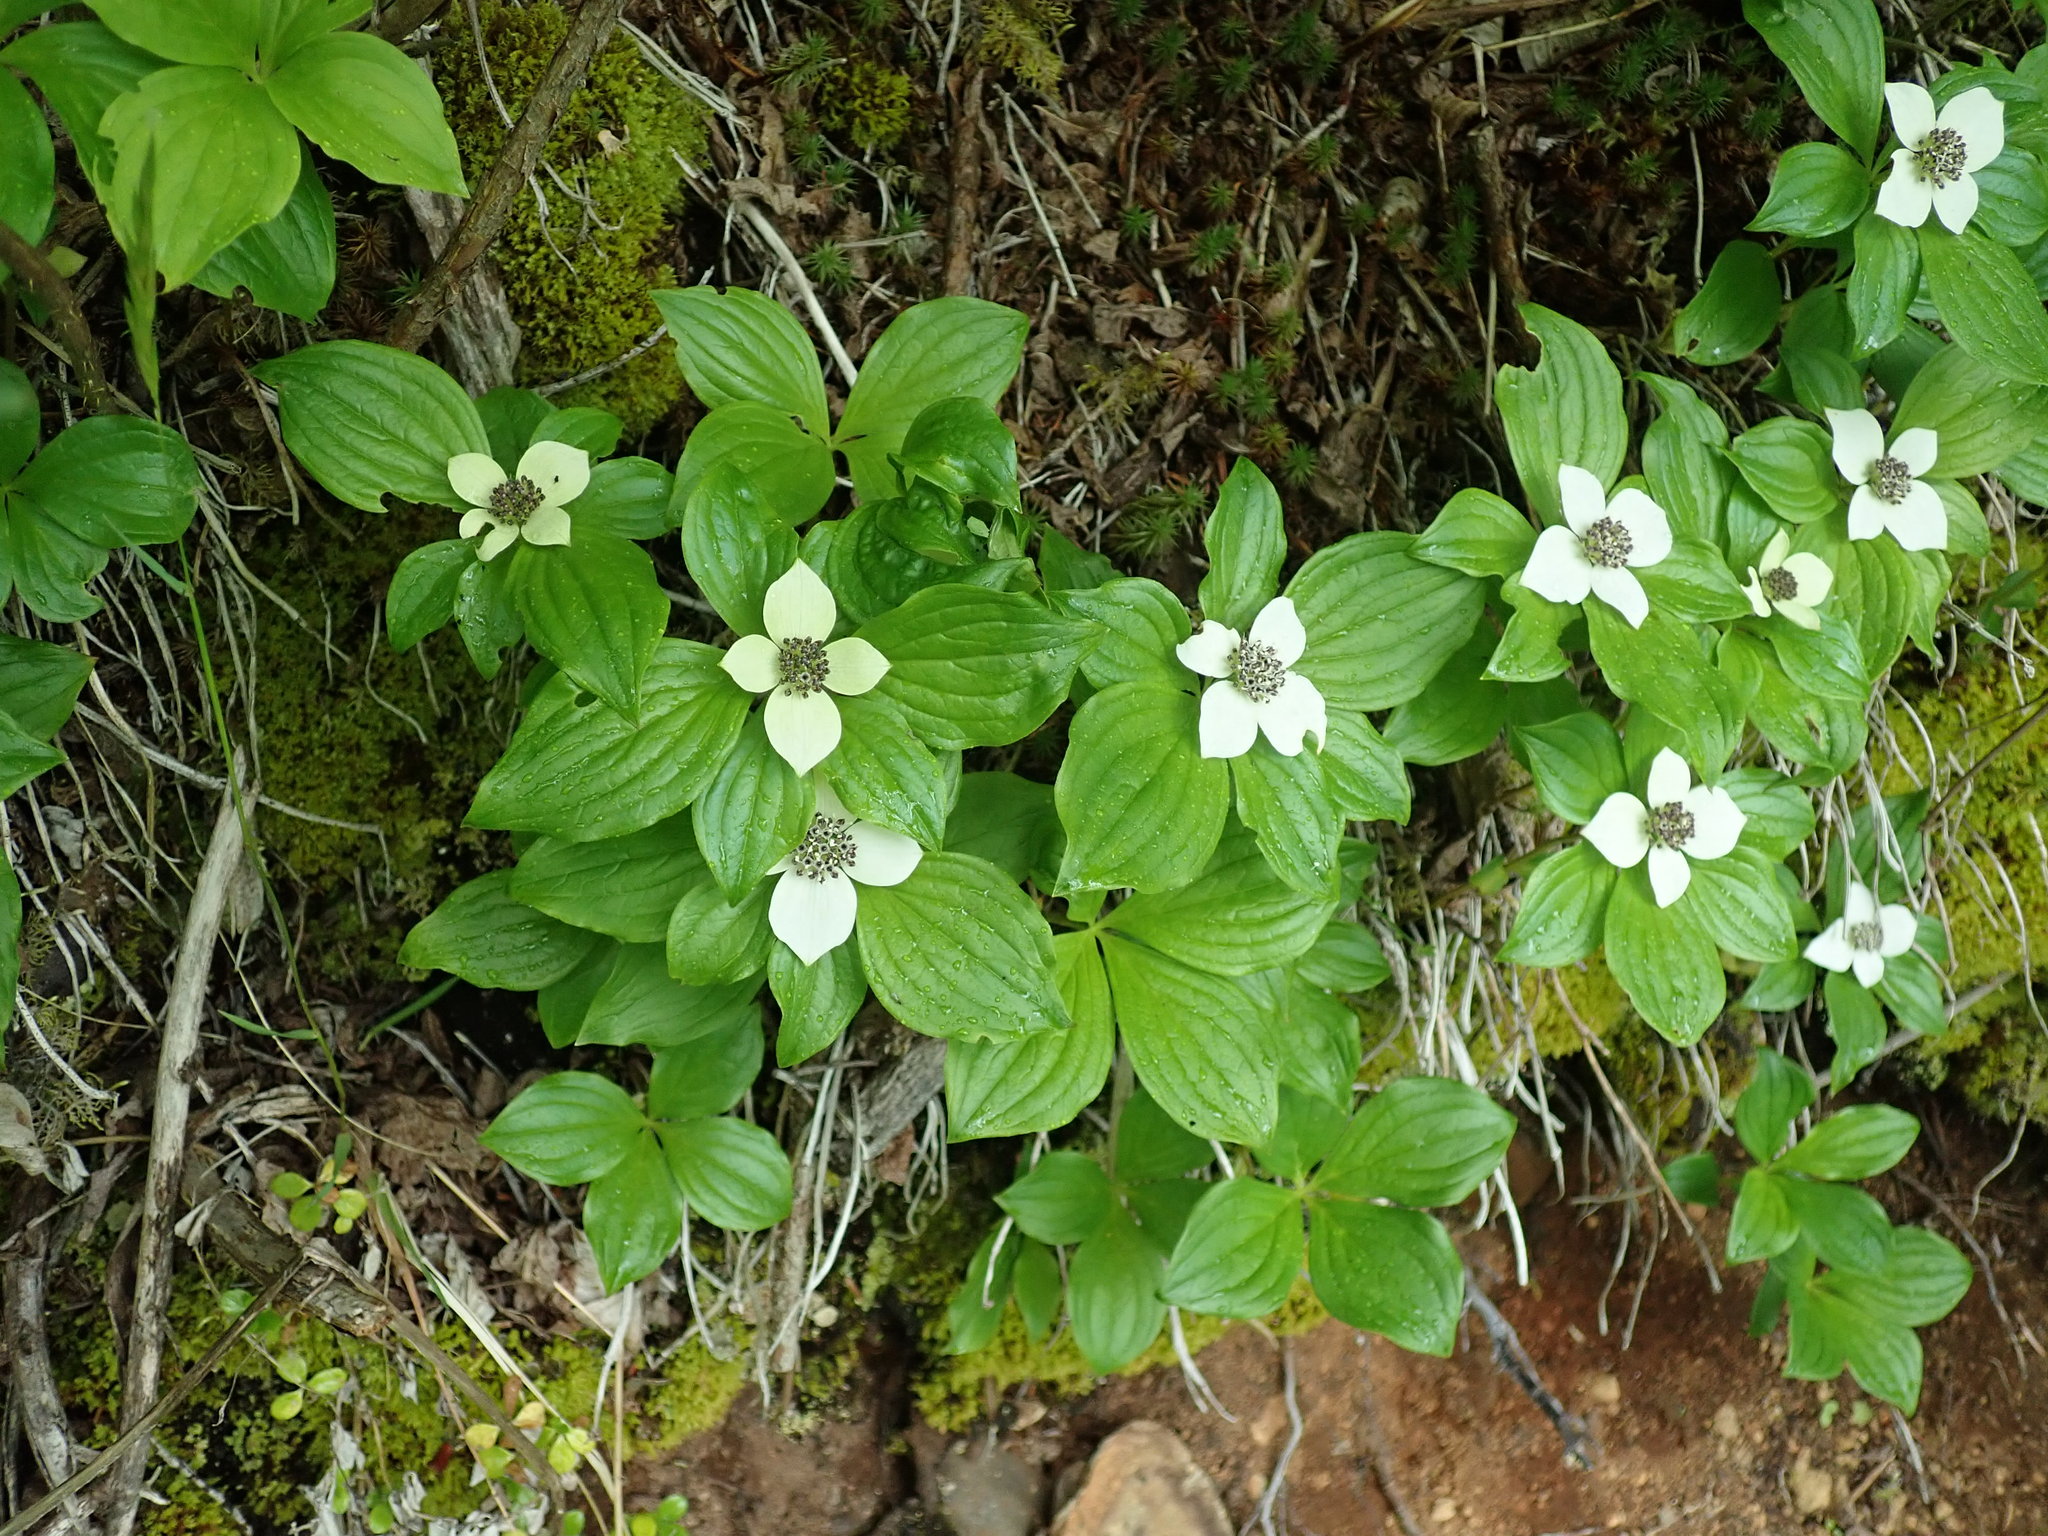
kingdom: Plantae
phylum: Tracheophyta
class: Magnoliopsida
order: Cornales
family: Cornaceae
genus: Cornus
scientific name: Cornus unalaschkensis
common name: Alaska bunchberry
